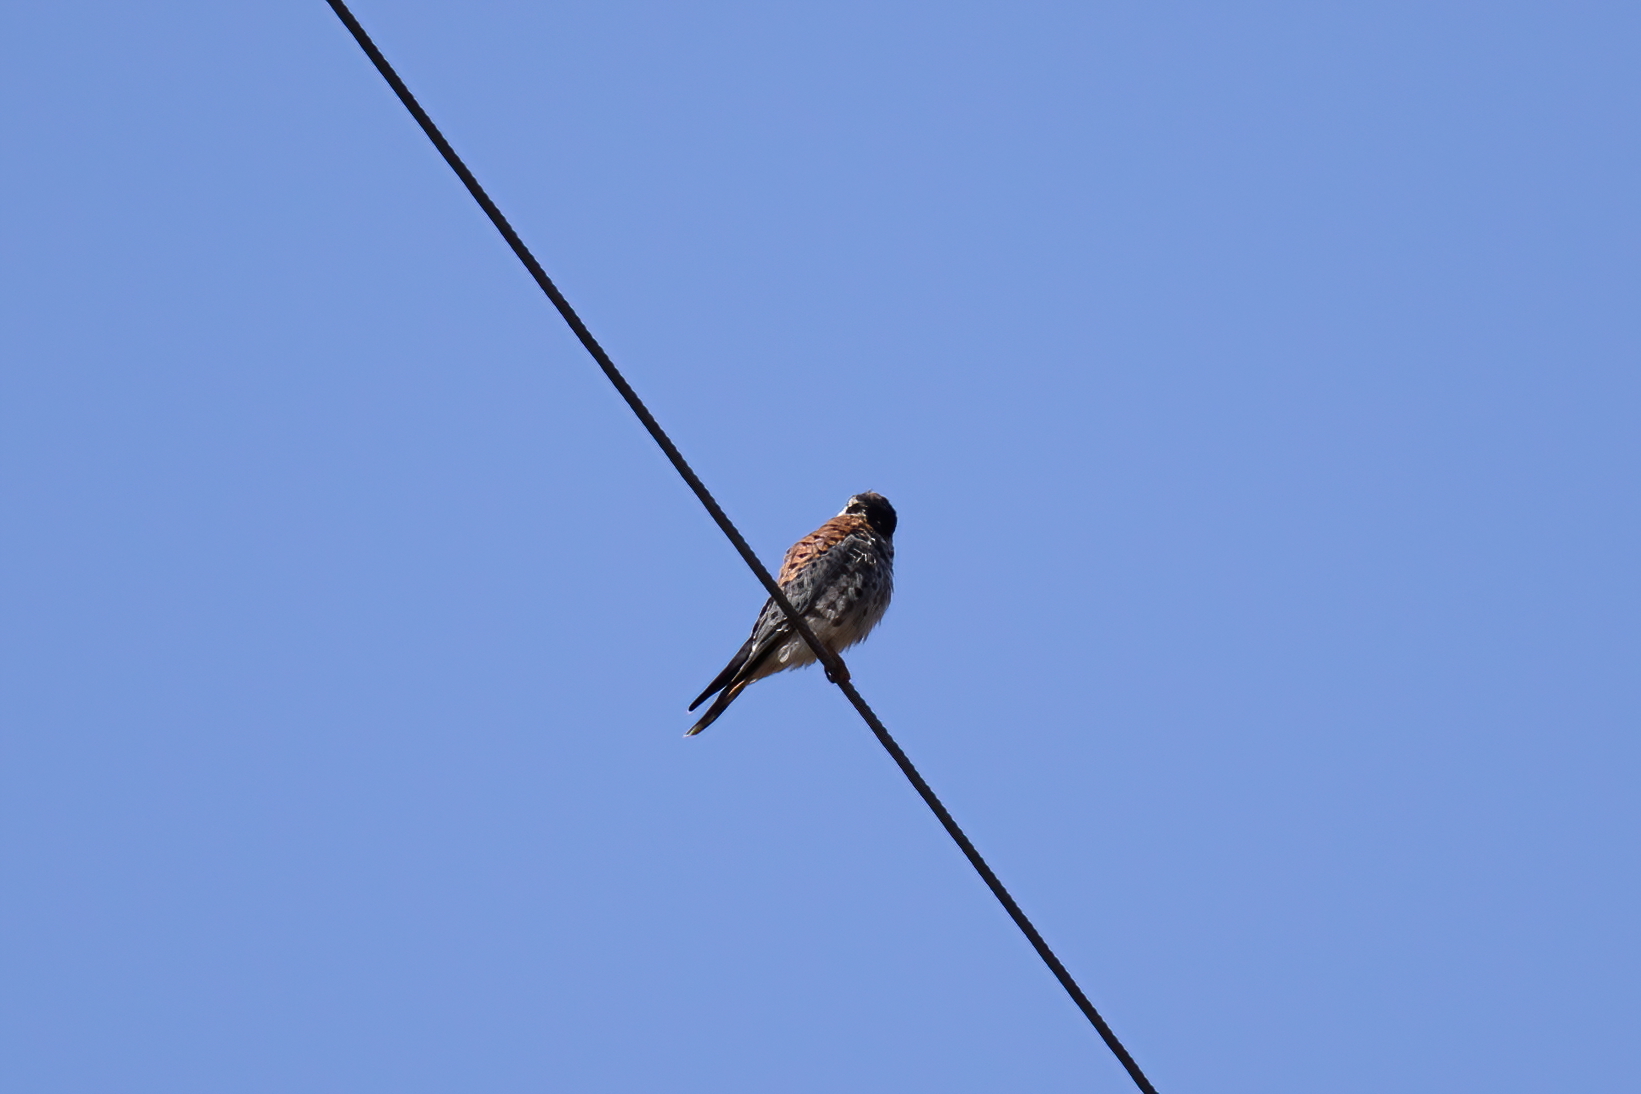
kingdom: Animalia
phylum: Chordata
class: Aves
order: Falconiformes
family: Falconidae
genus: Falco
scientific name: Falco sparverius
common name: American kestrel
